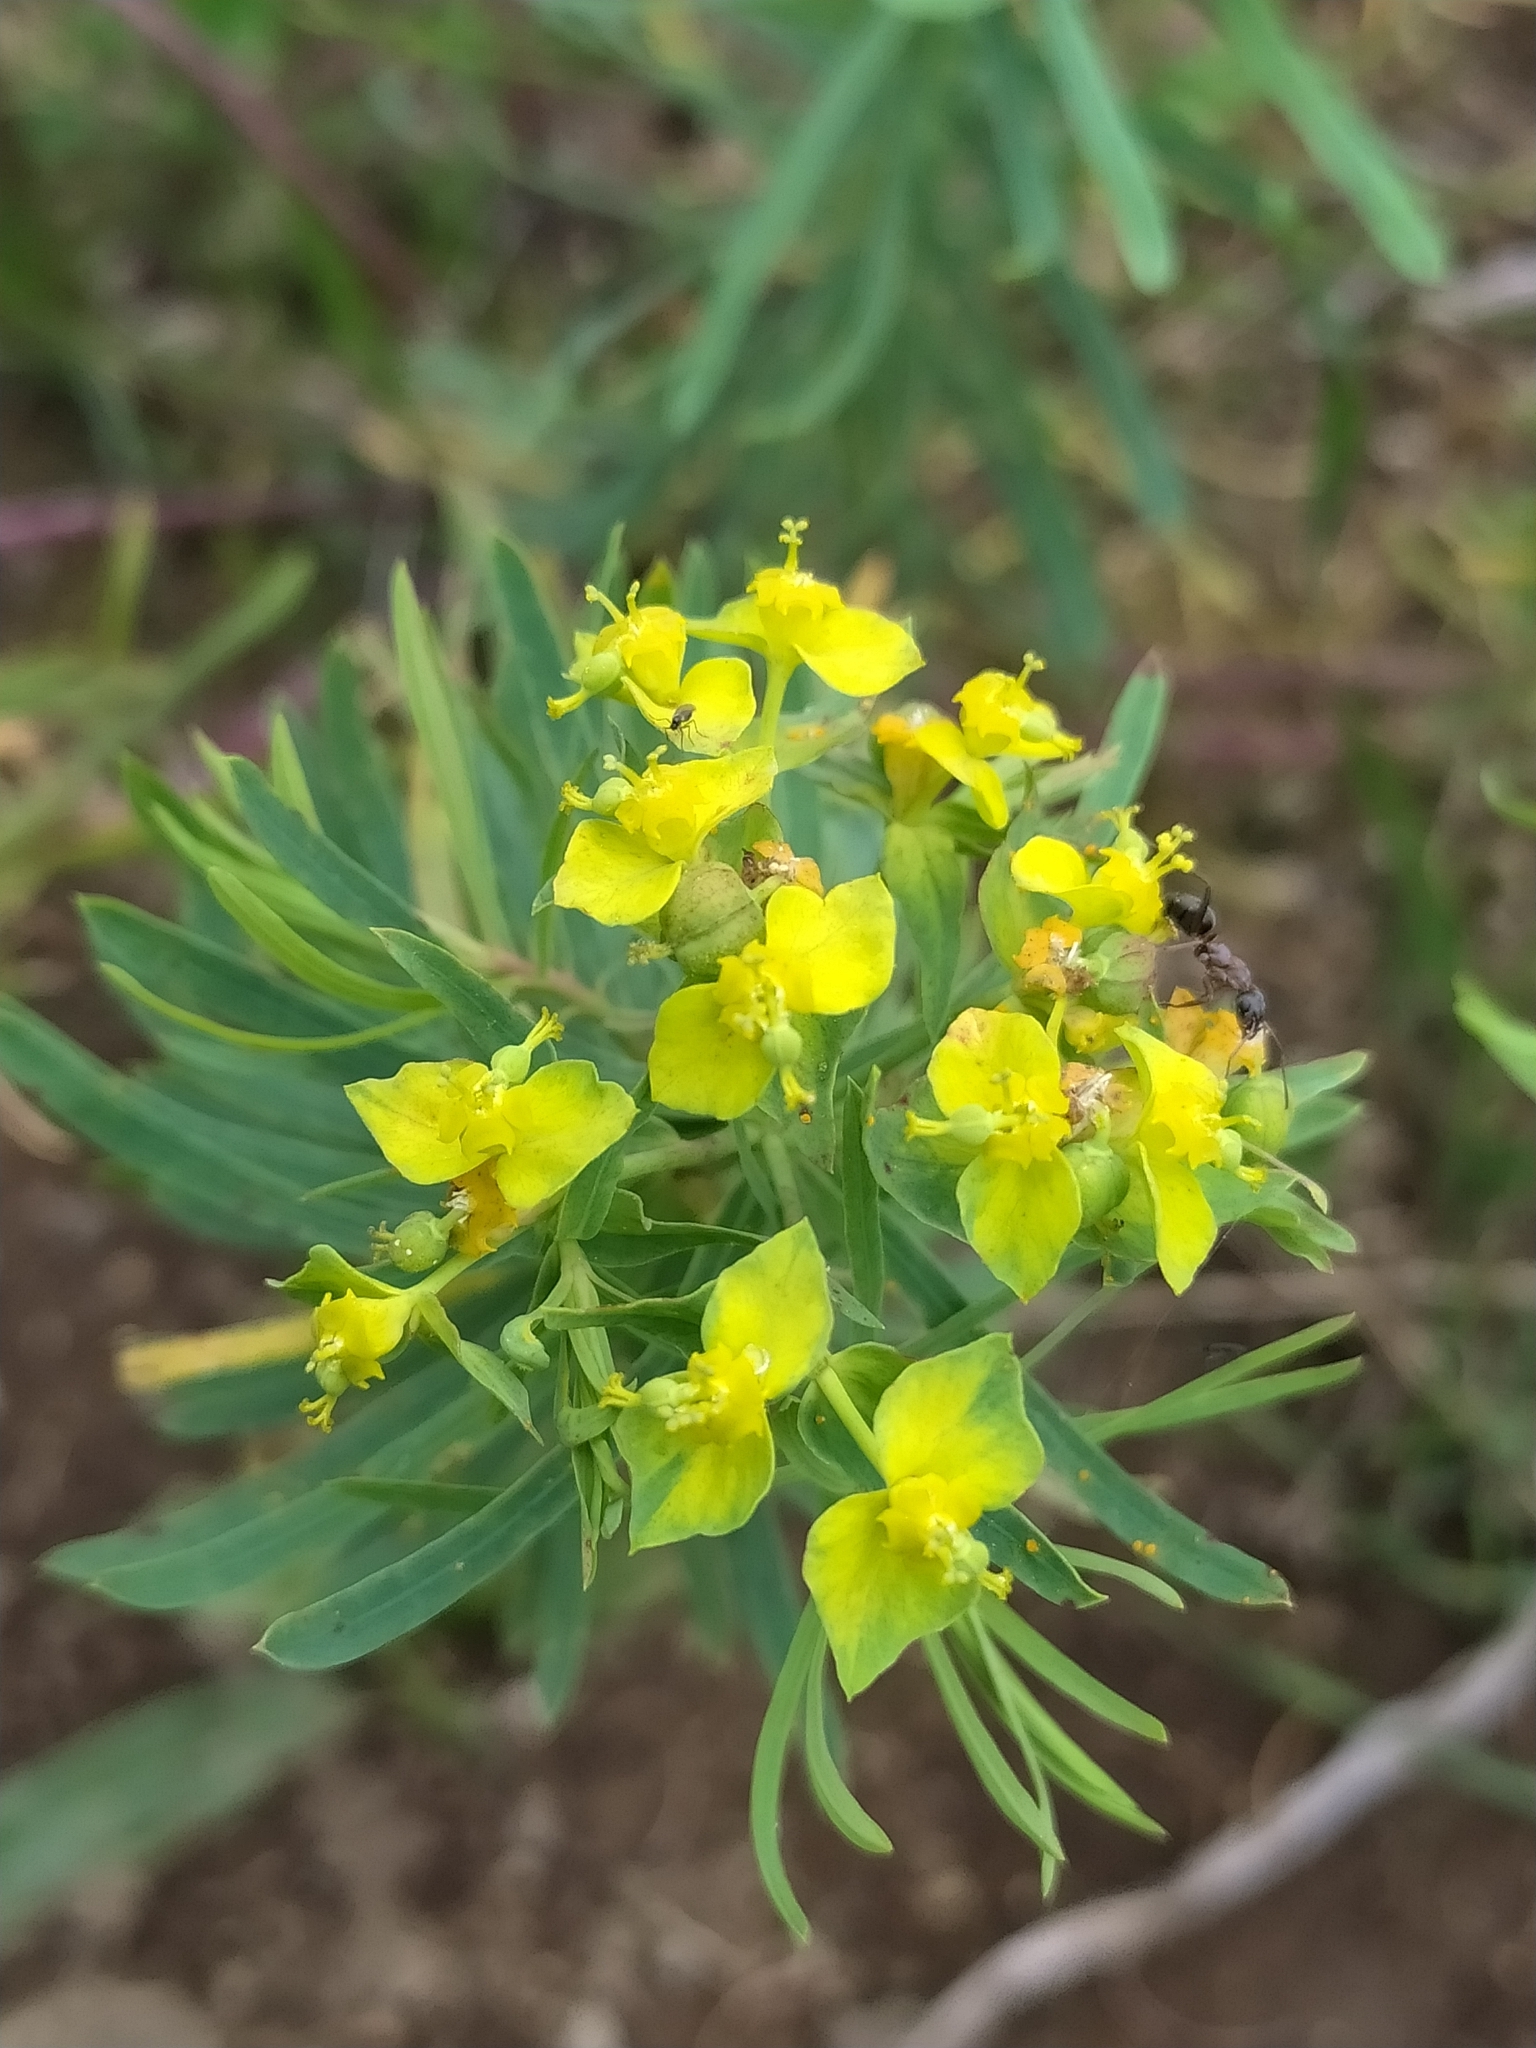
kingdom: Plantae
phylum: Tracheophyta
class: Magnoliopsida
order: Malpighiales
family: Euphorbiaceae
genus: Euphorbia
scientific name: Euphorbia cyparissias
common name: Cypress spurge
